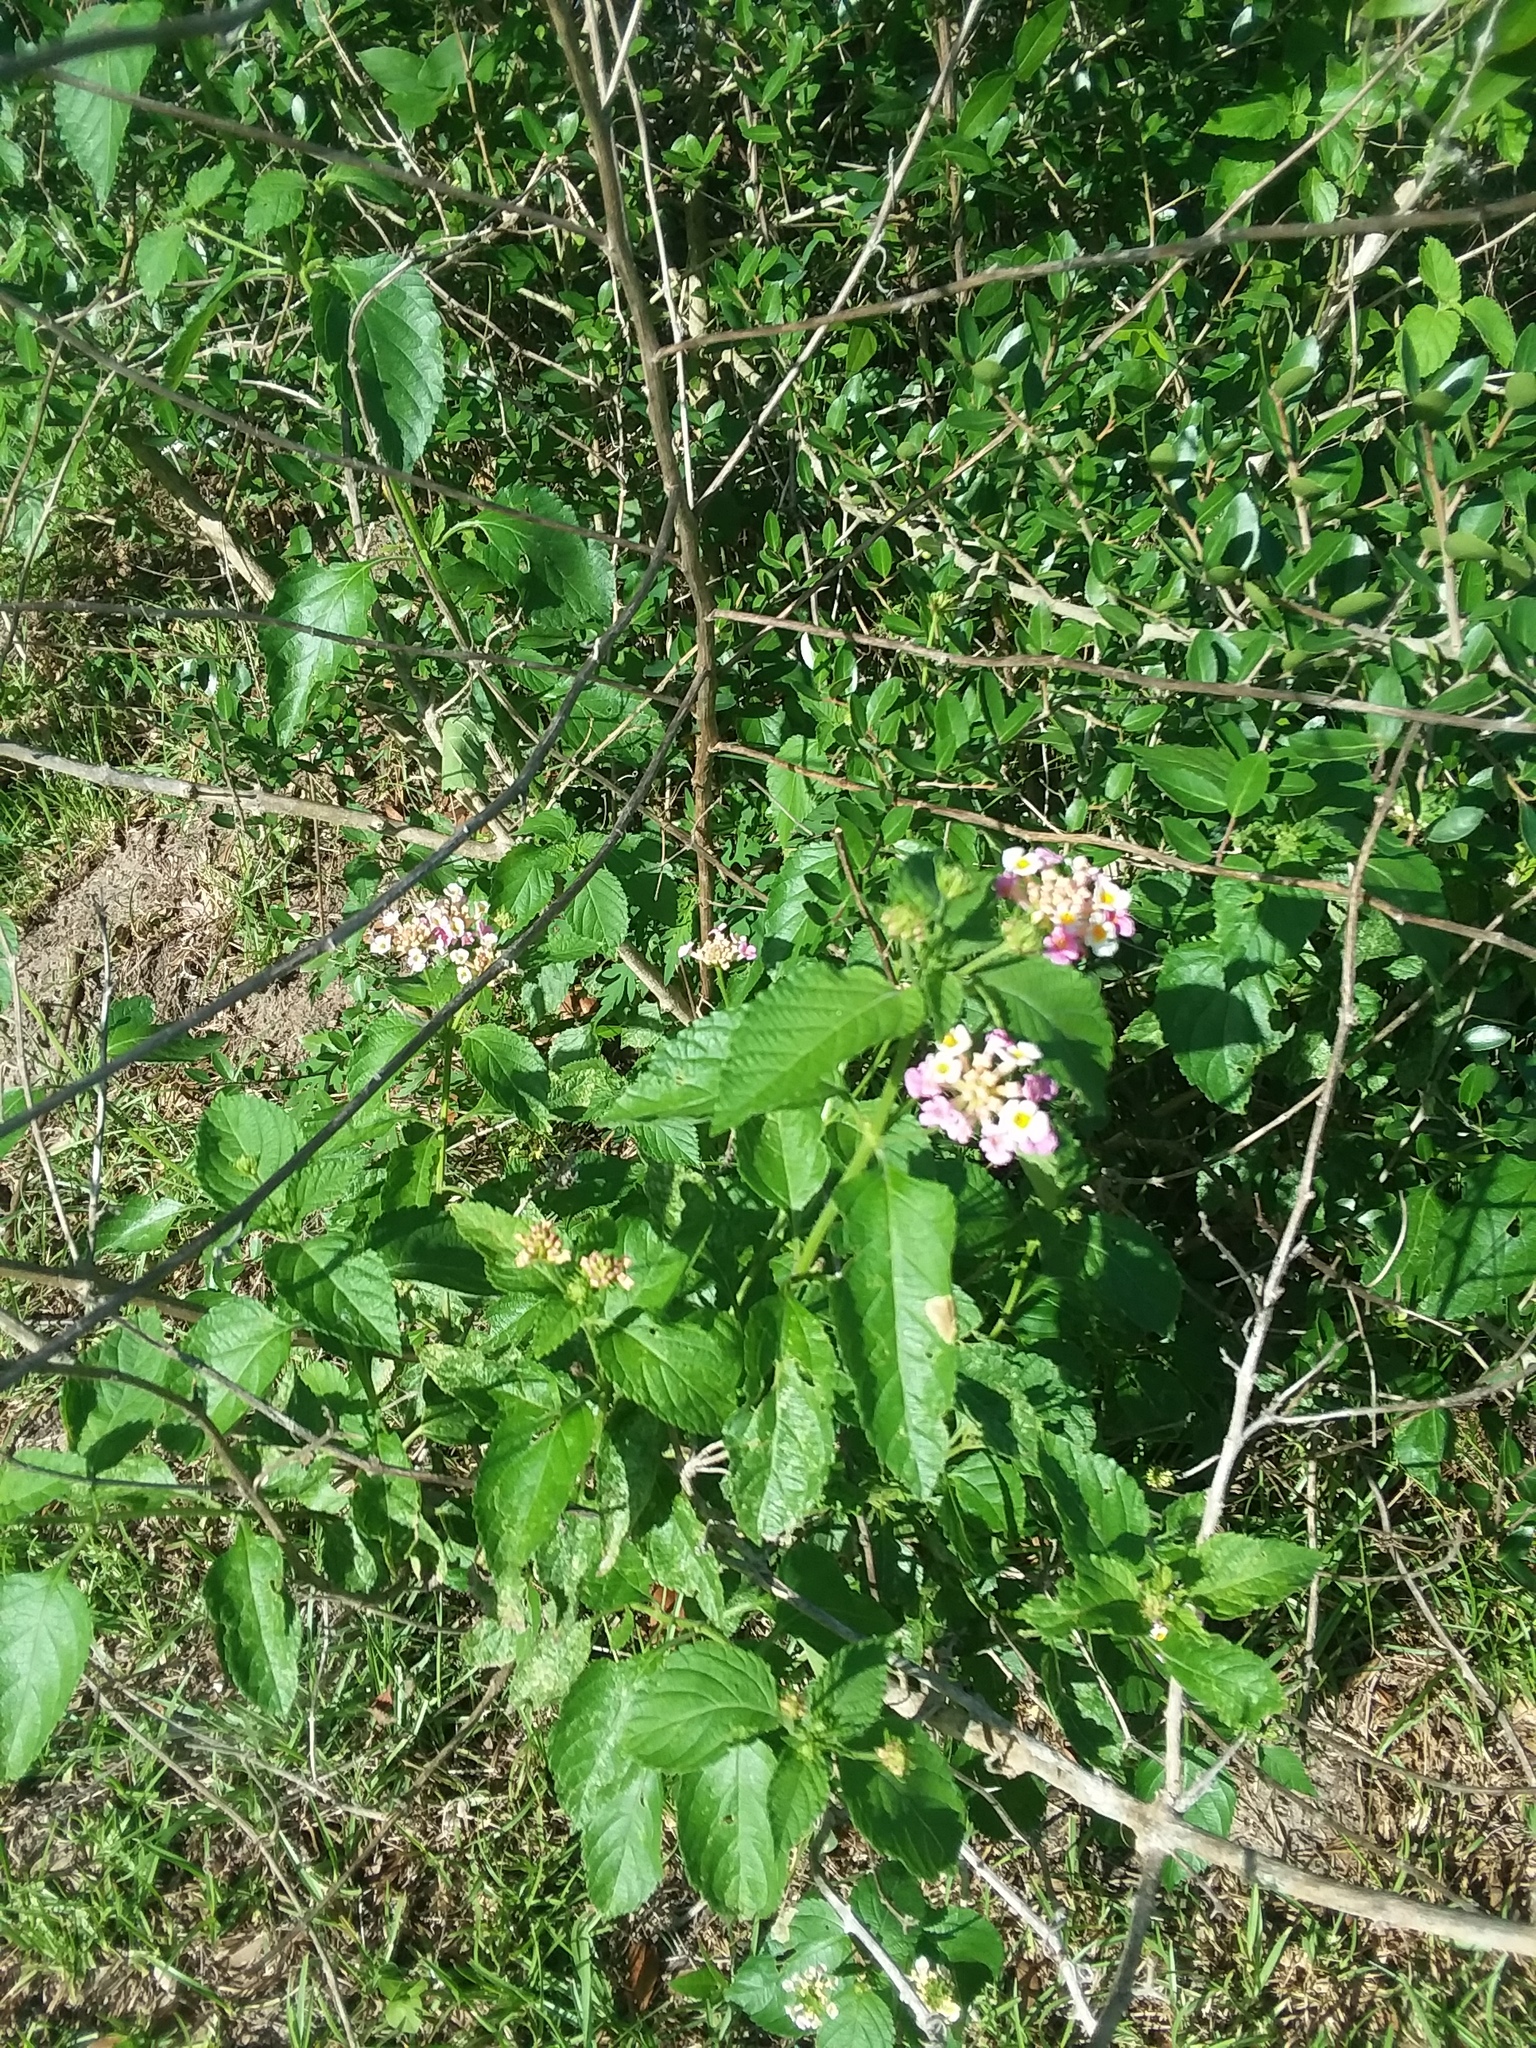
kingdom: Plantae
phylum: Tracheophyta
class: Magnoliopsida
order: Lamiales
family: Verbenaceae
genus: Lantana
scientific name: Lantana strigocamara
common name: Lantana
